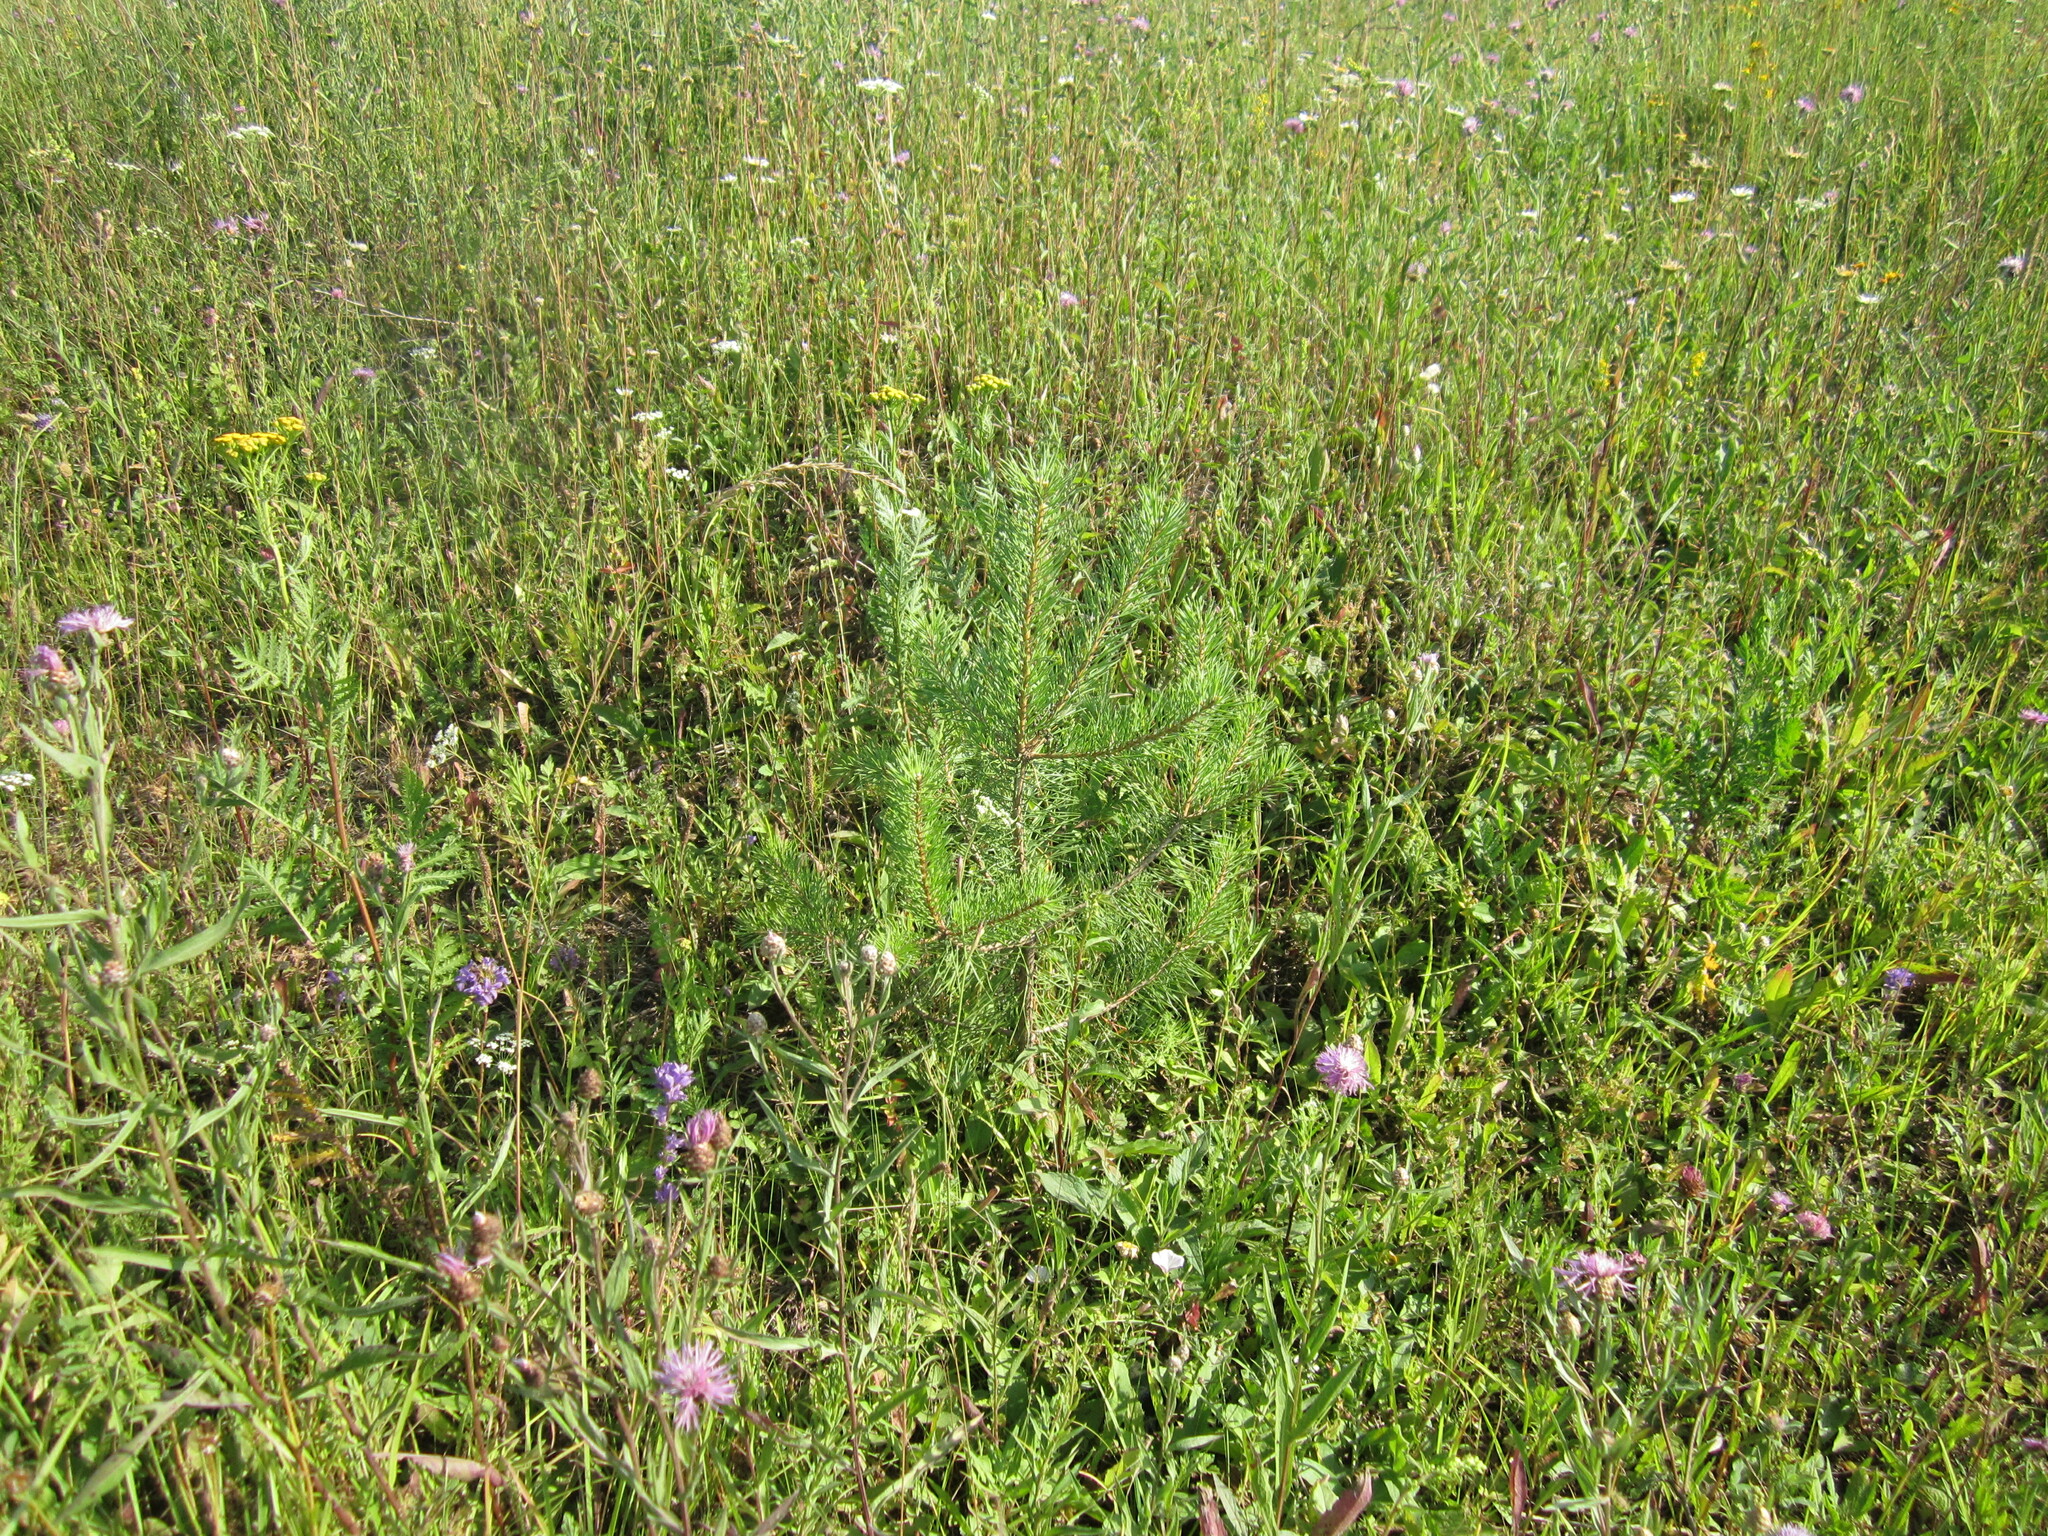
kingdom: Plantae
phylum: Tracheophyta
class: Pinopsida
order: Pinales
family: Pinaceae
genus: Pinus
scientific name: Pinus sylvestris
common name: Scots pine
